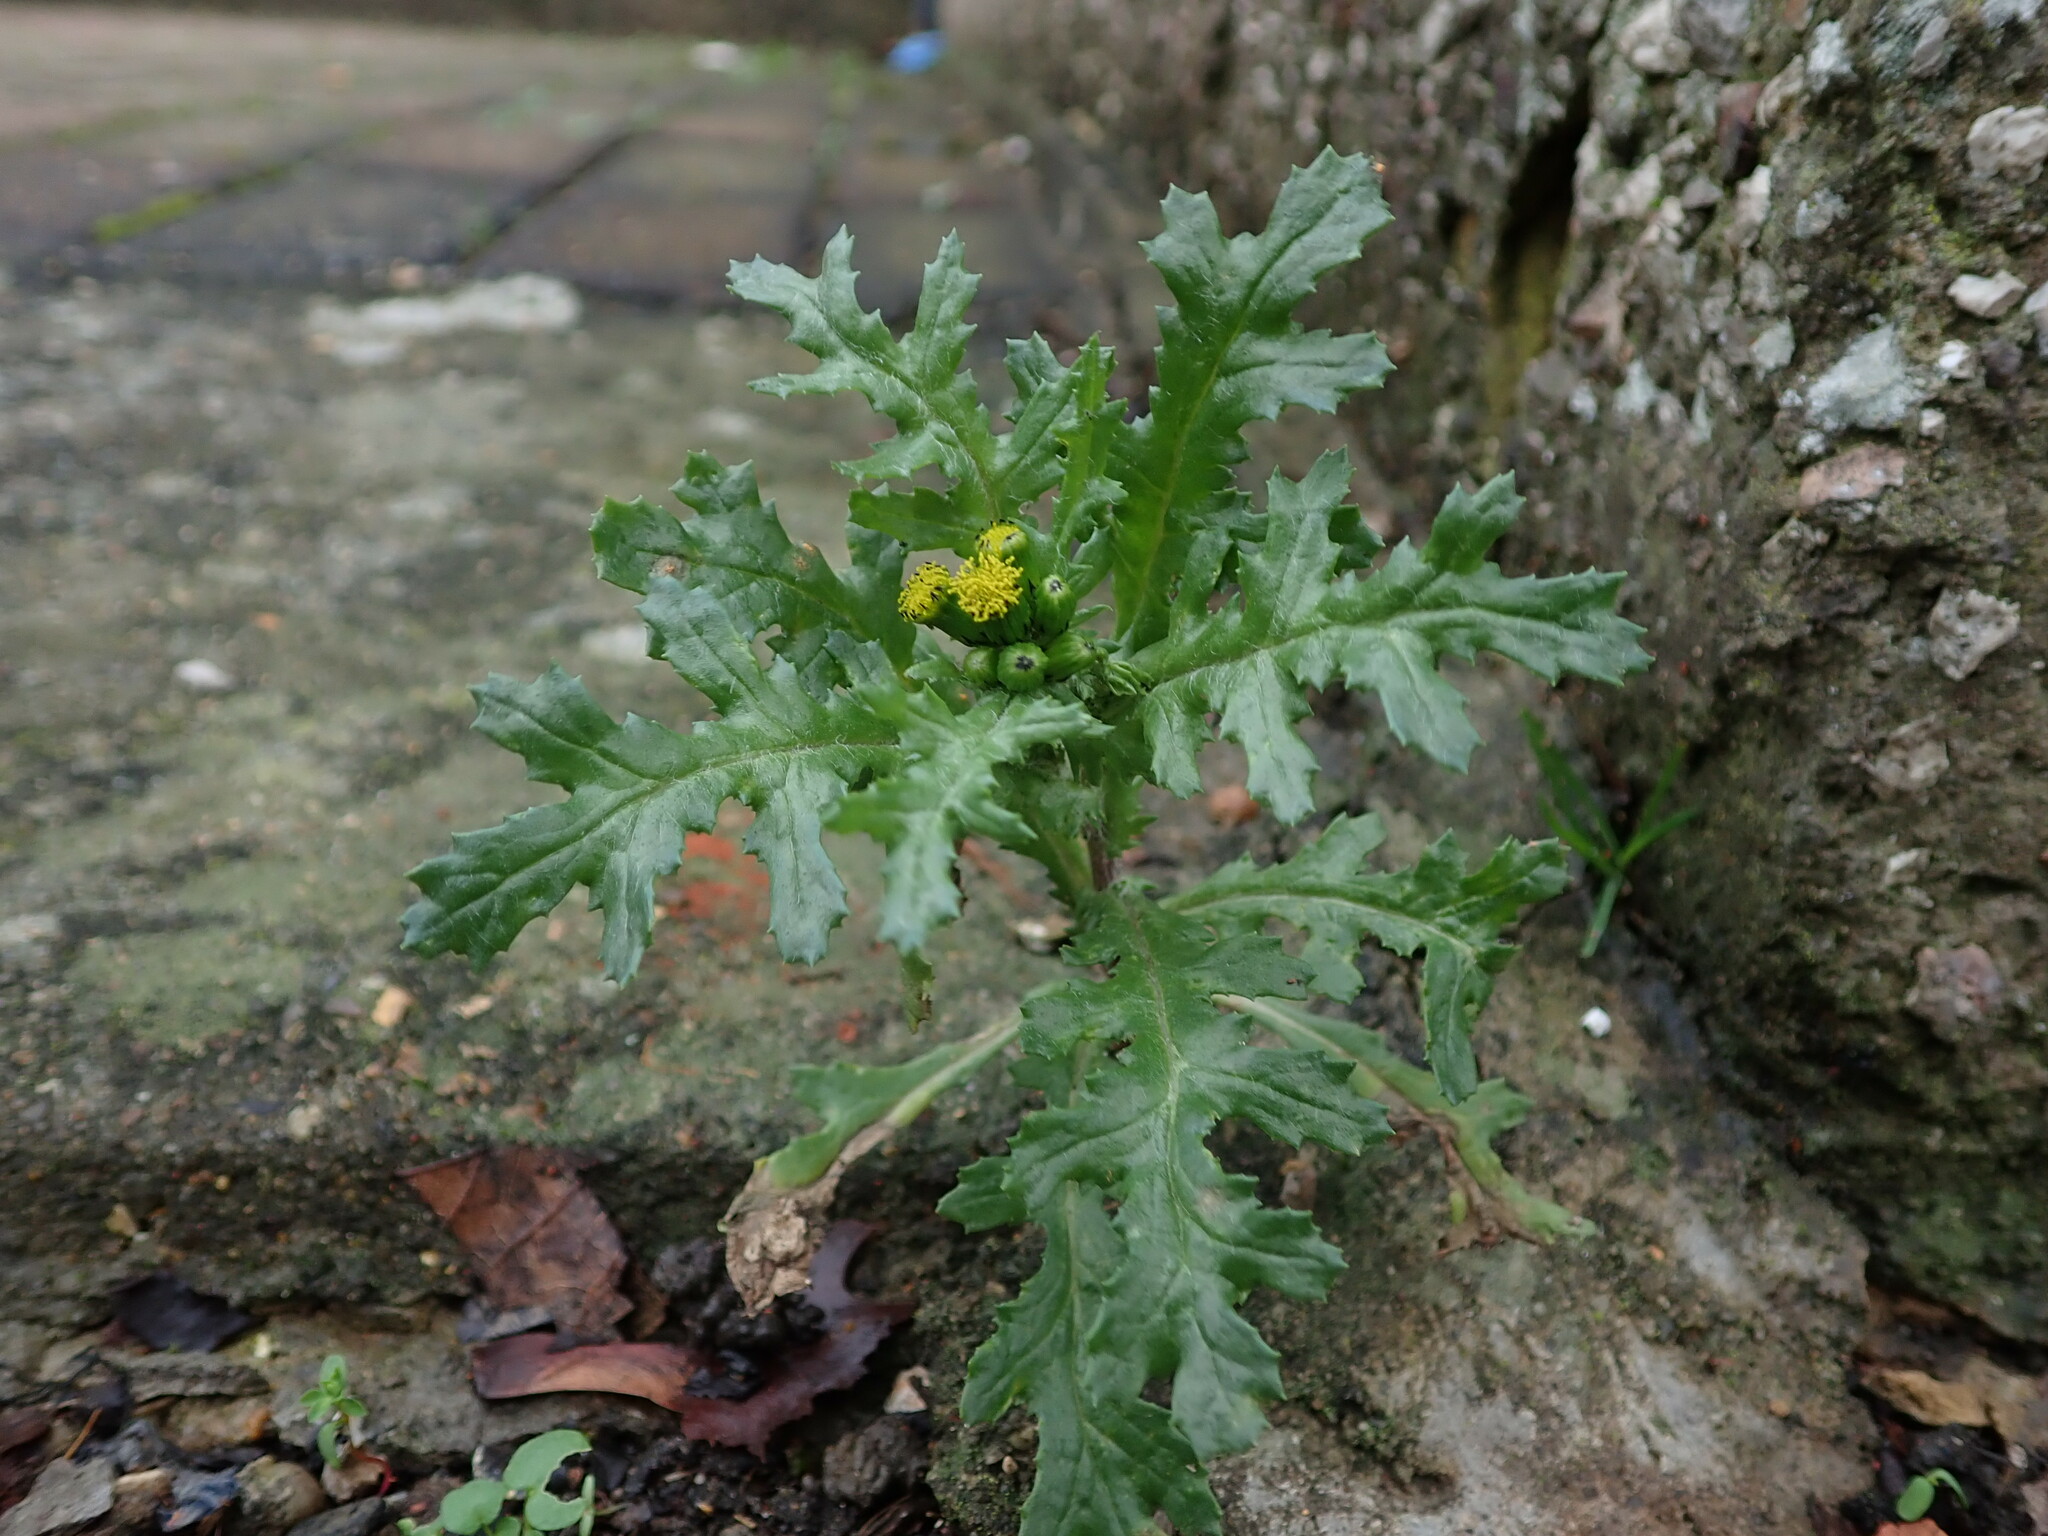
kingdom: Plantae
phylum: Tracheophyta
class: Magnoliopsida
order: Asterales
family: Asteraceae
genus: Senecio
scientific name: Senecio vulgaris
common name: Old-man-in-the-spring
